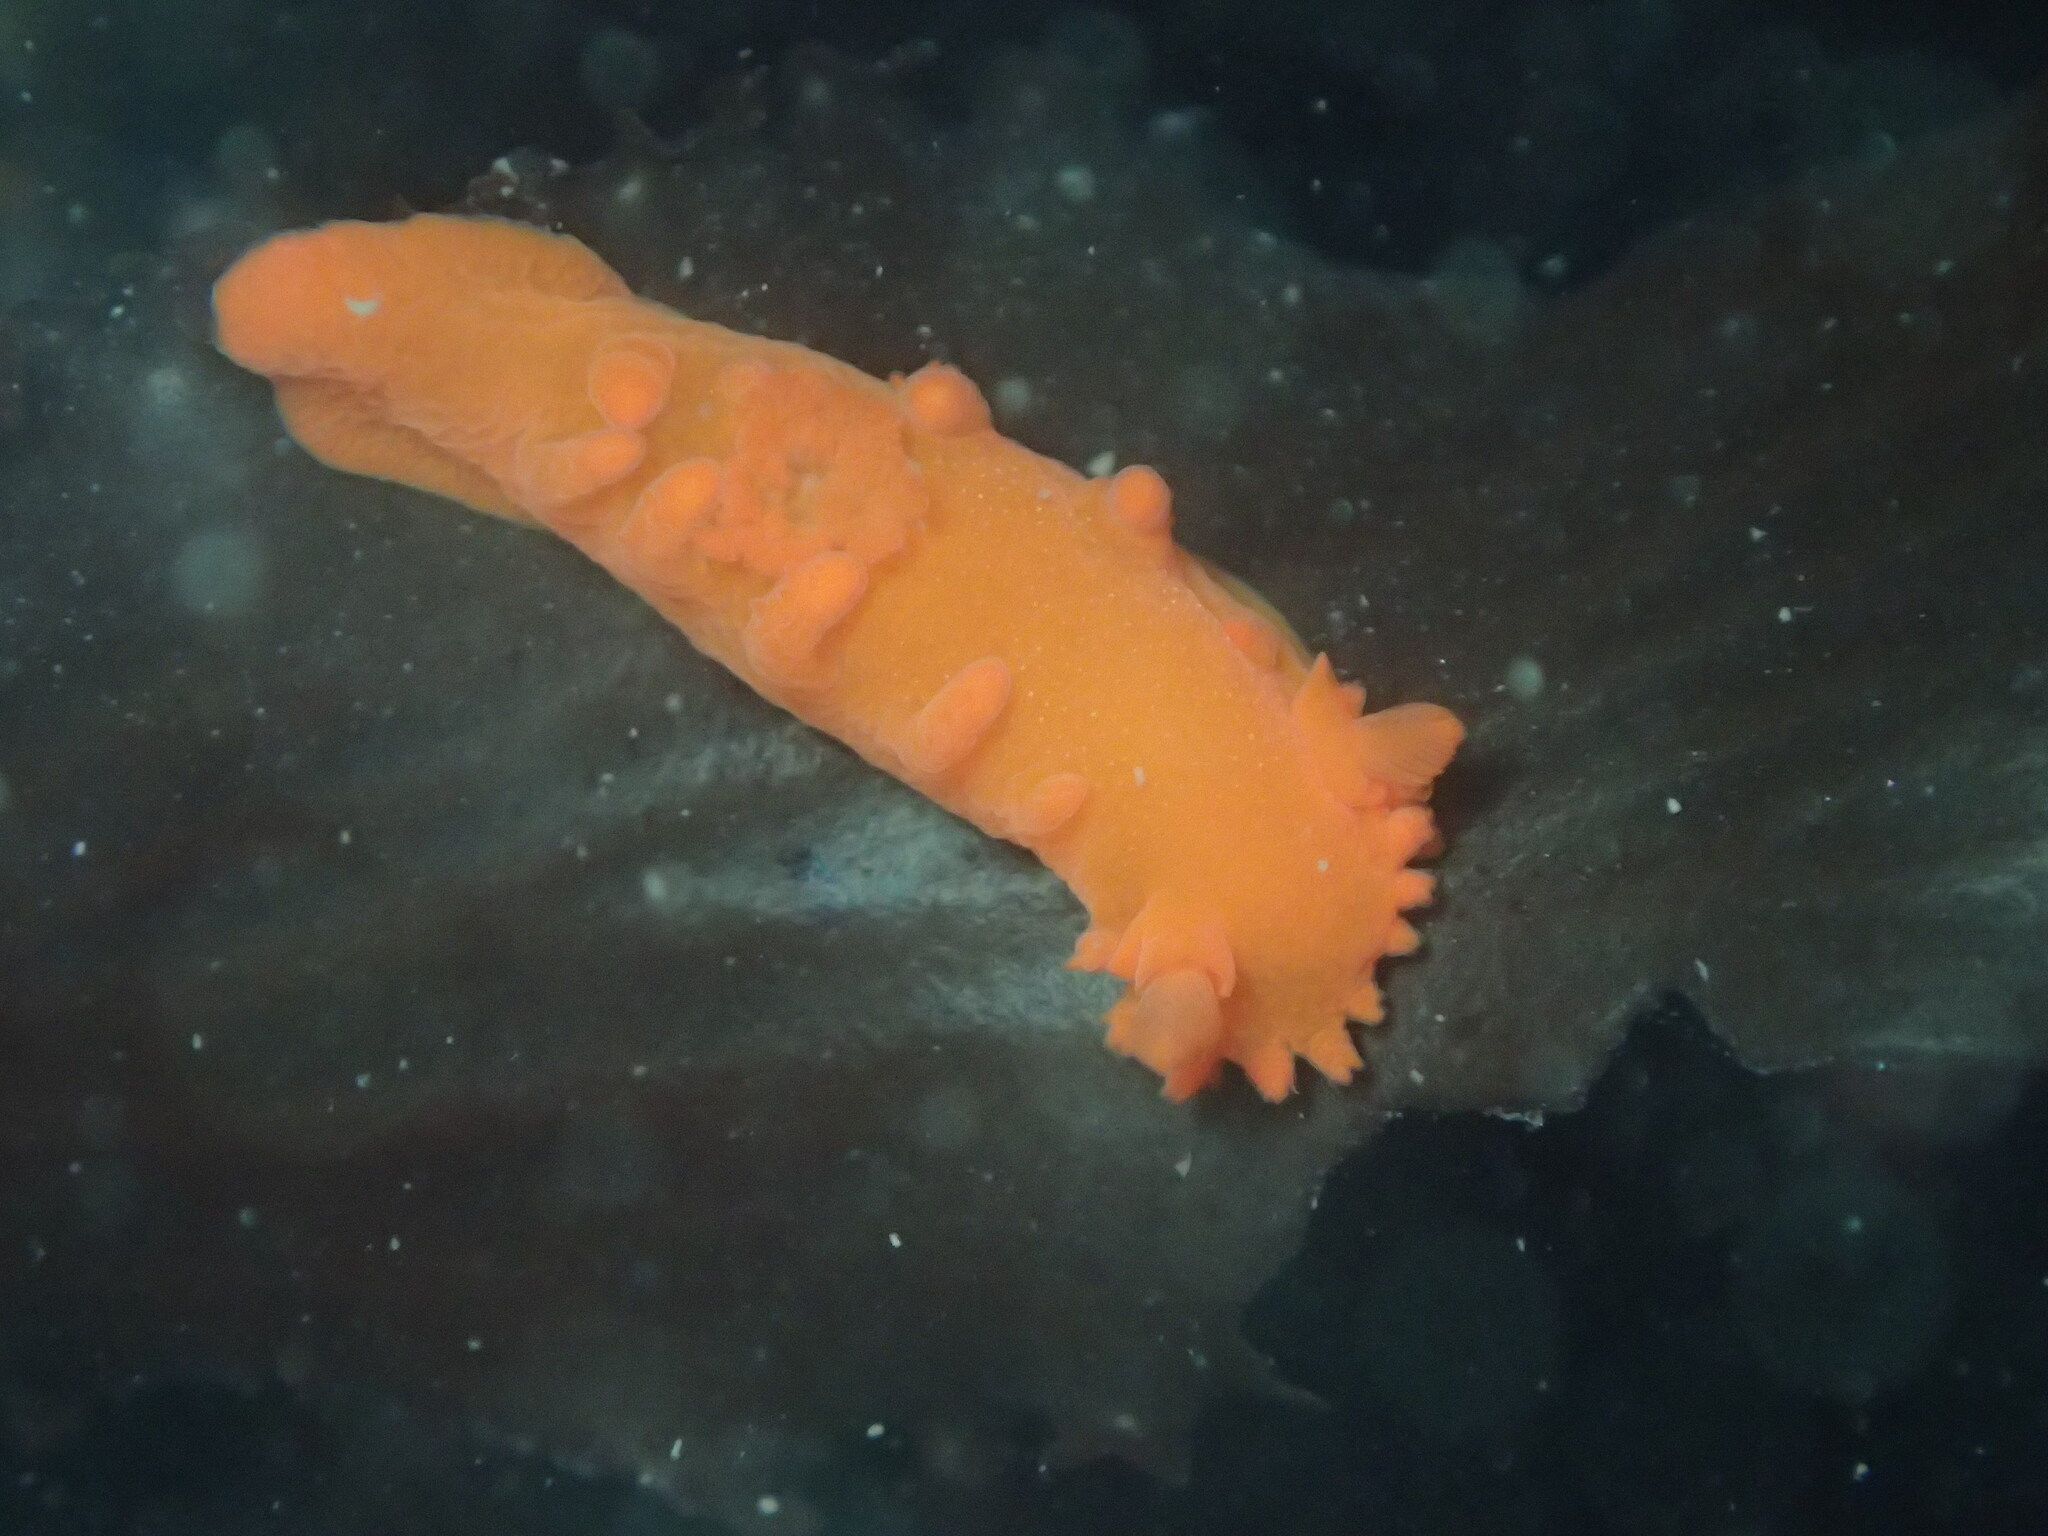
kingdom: Animalia
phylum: Mollusca
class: Gastropoda
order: Nudibranchia
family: Polyceridae
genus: Triopha
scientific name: Triopha maculata
